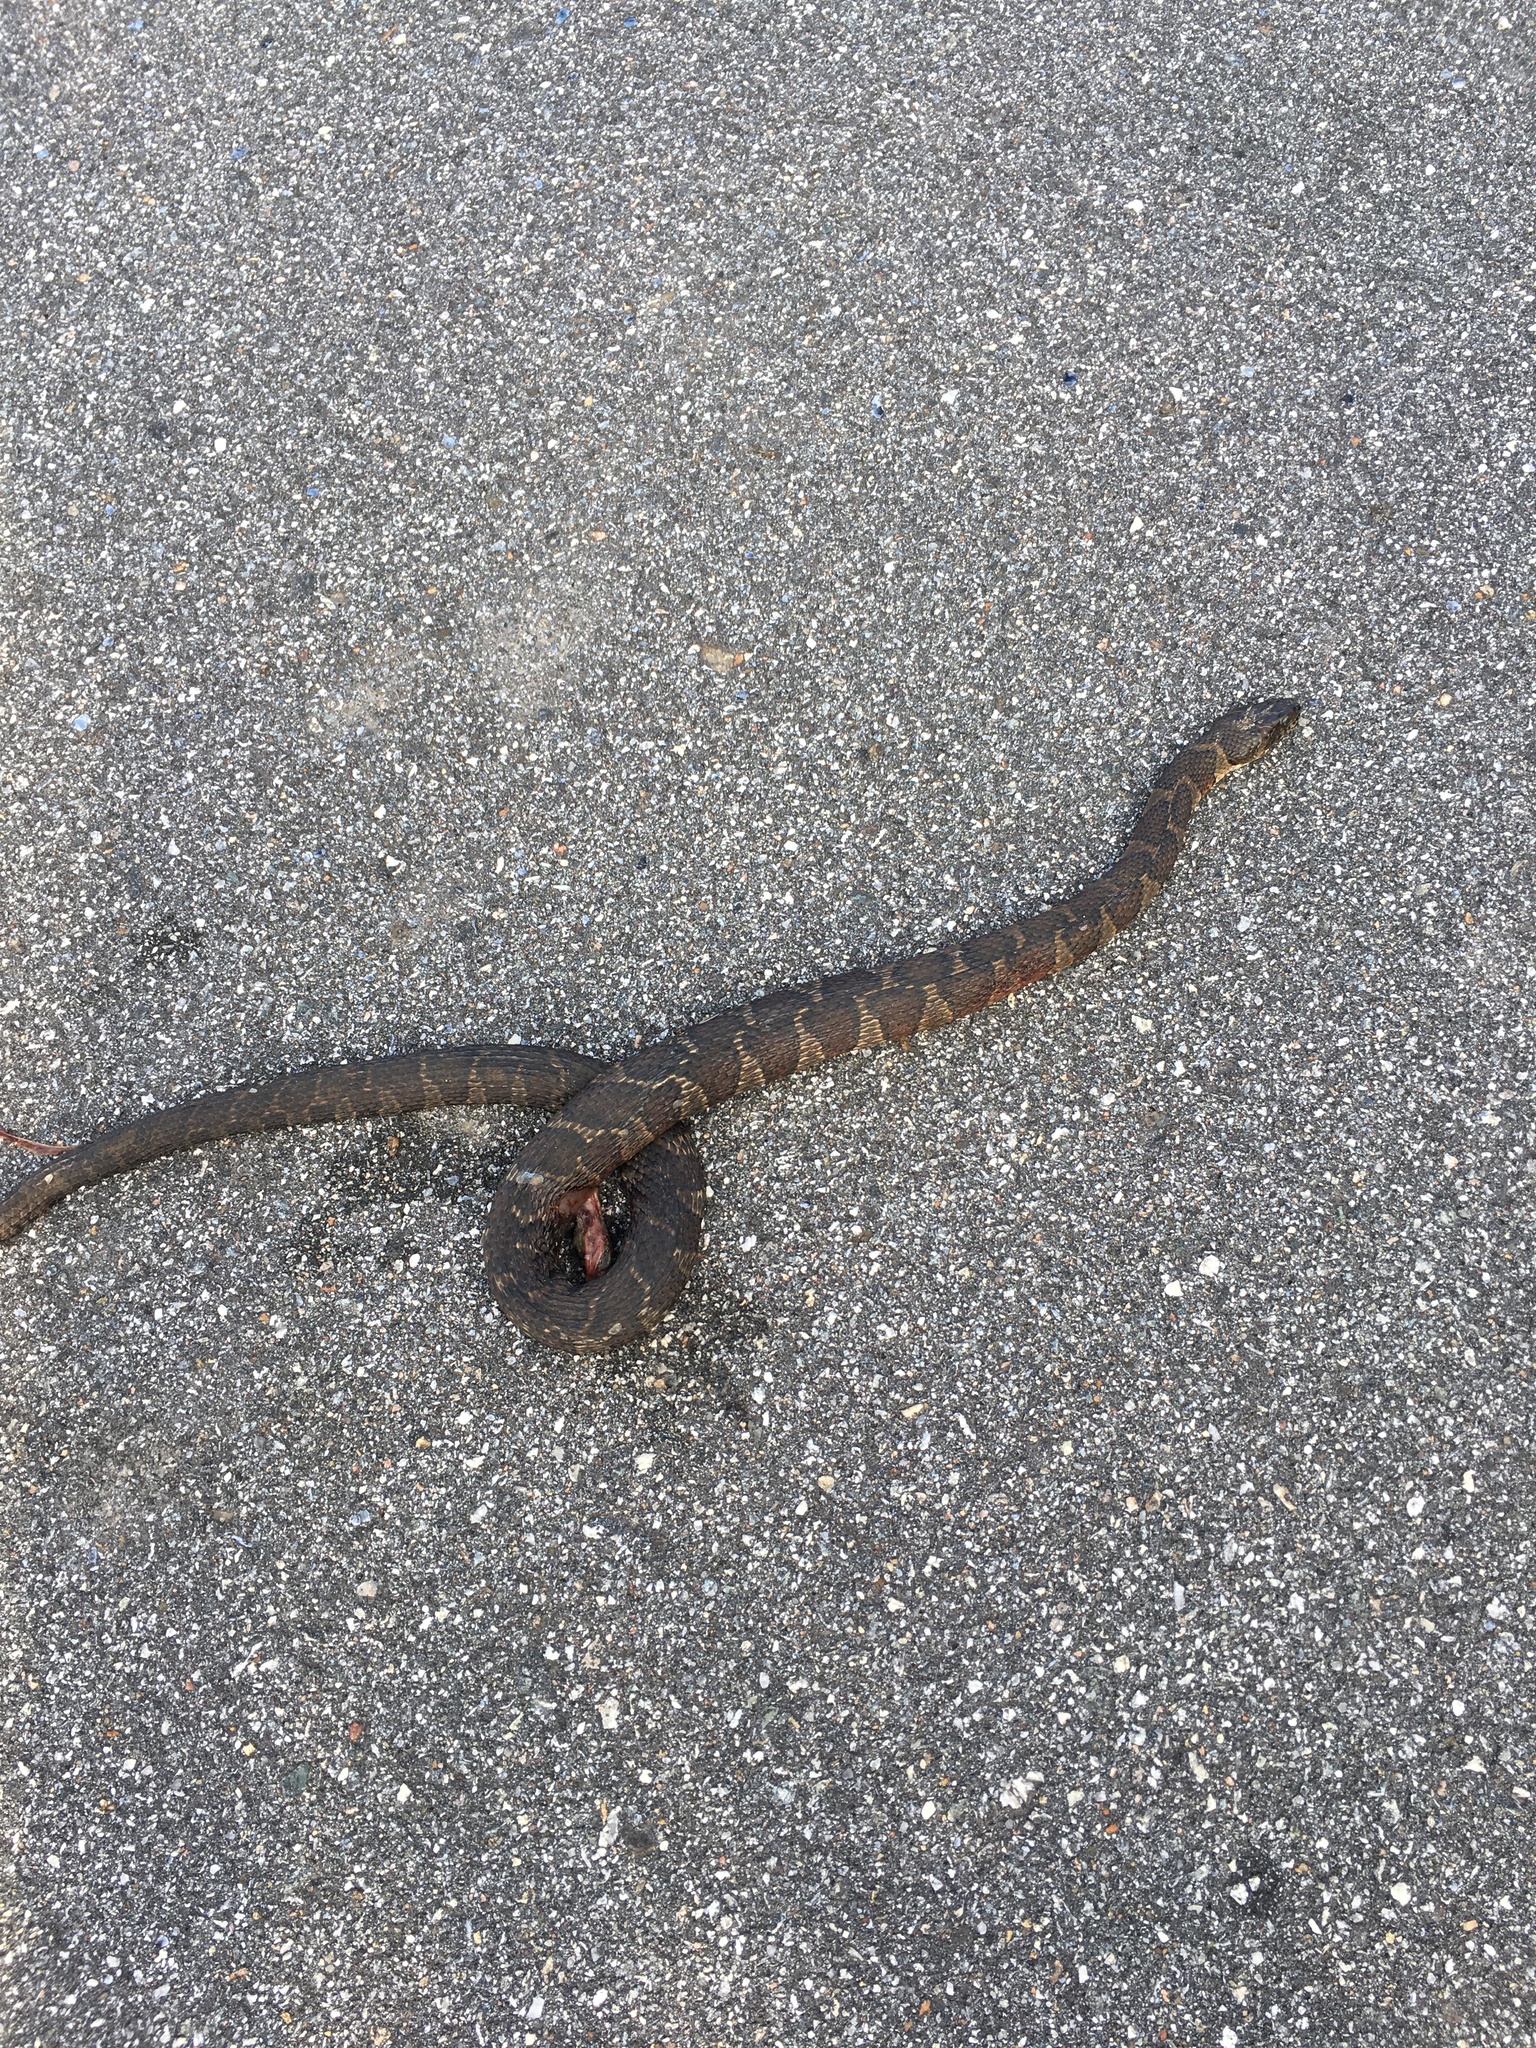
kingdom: Animalia
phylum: Chordata
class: Squamata
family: Colubridae
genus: Nerodia
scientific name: Nerodia sipedon
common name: Northern water snake
